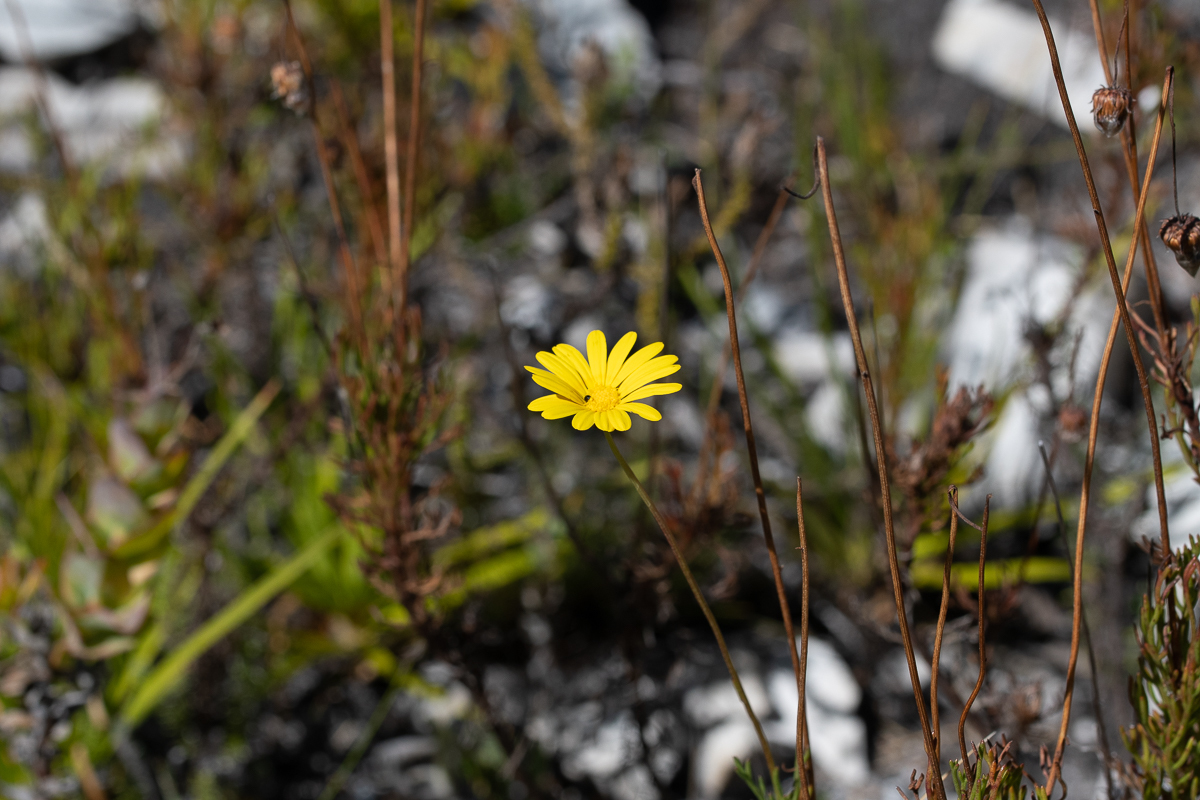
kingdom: Plantae
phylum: Tracheophyta
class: Magnoliopsida
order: Asterales
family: Asteraceae
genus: Ursinia
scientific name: Ursinia paleacea
